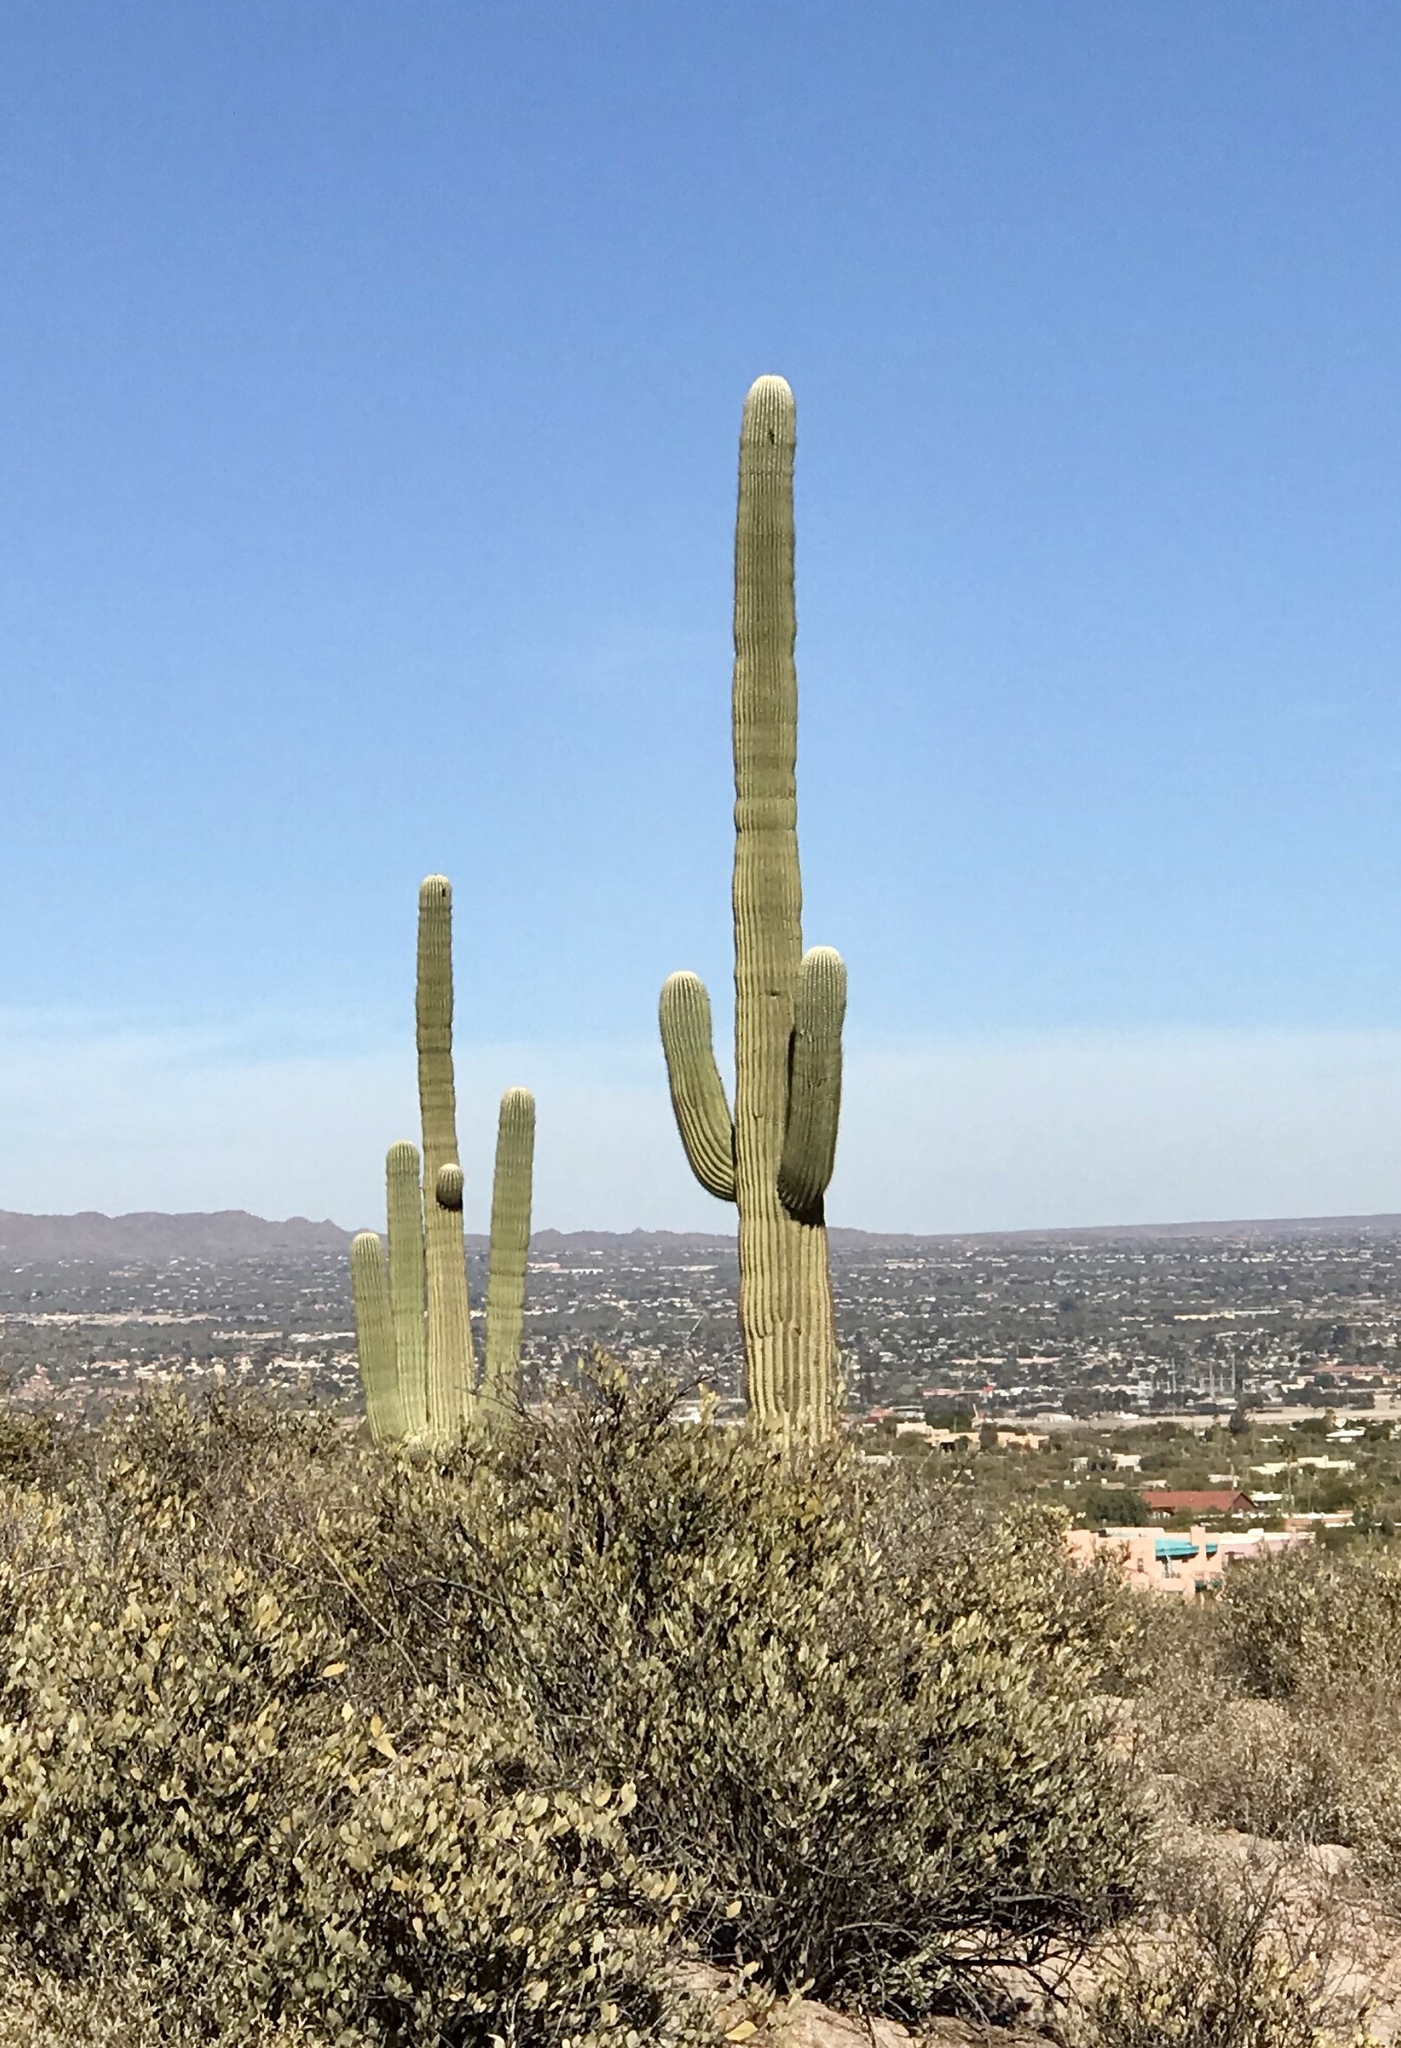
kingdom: Plantae
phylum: Tracheophyta
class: Magnoliopsida
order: Caryophyllales
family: Cactaceae
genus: Carnegiea
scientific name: Carnegiea gigantea
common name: Saguaro
